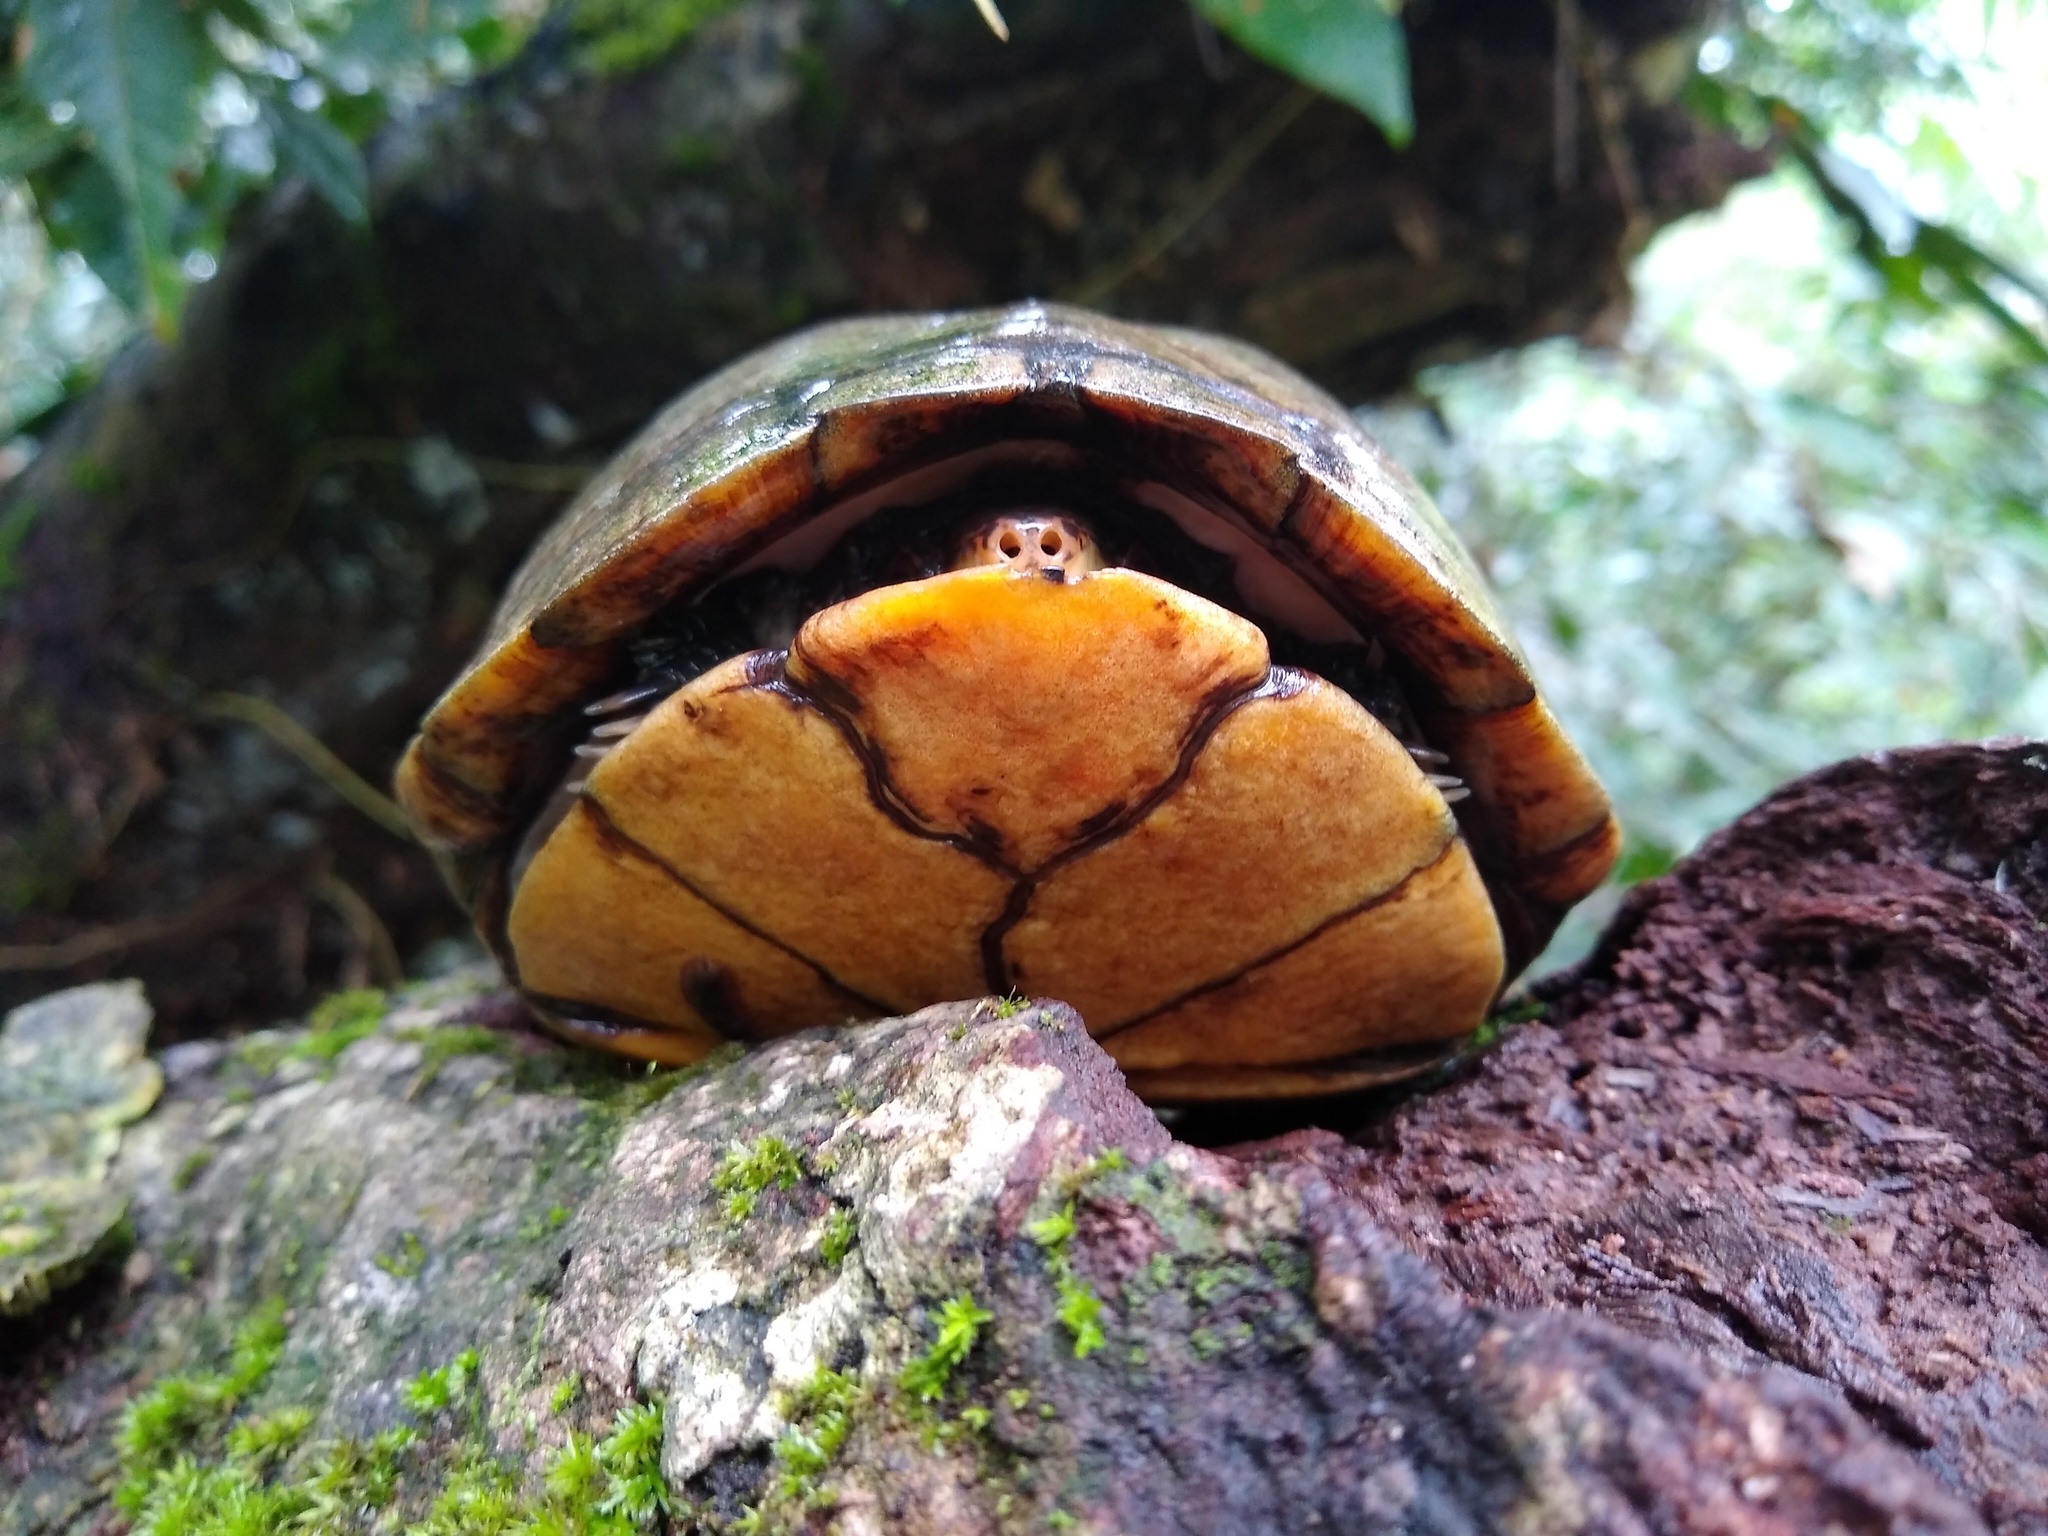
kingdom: Animalia
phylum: Chordata
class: Testudines
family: Kinosternidae
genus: Kinosternon
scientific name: Kinosternon scorpioides
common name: Scorpion mud turtle
